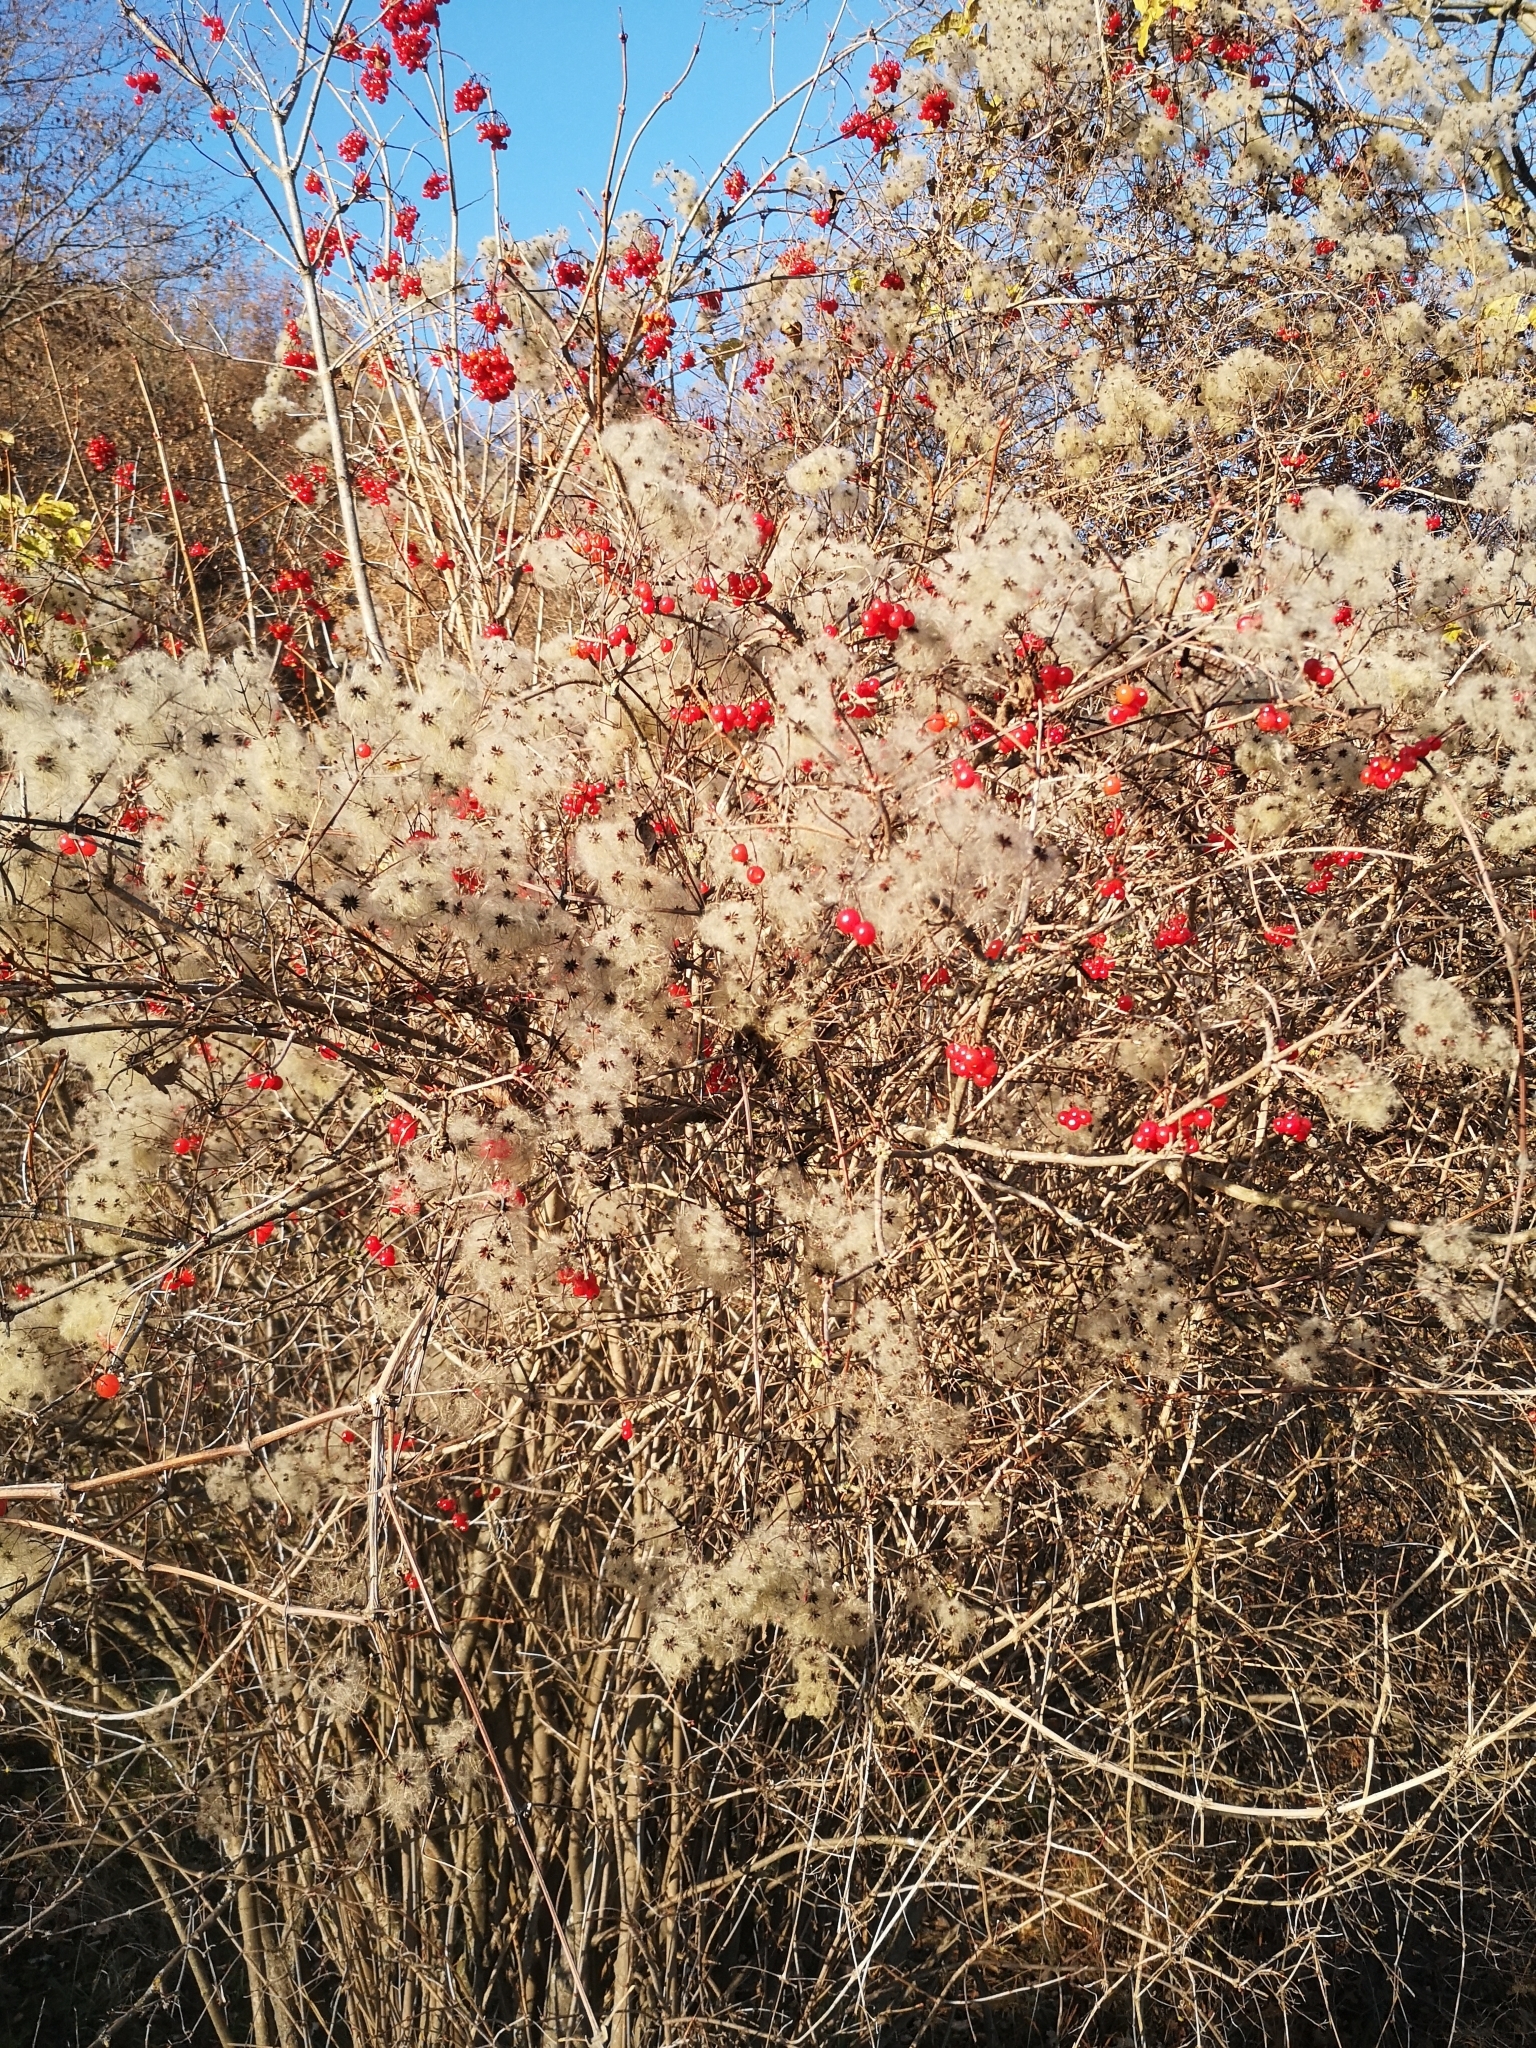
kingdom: Plantae
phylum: Tracheophyta
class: Magnoliopsida
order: Dipsacales
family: Viburnaceae
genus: Viburnum
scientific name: Viburnum opulus
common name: Guelder-rose
